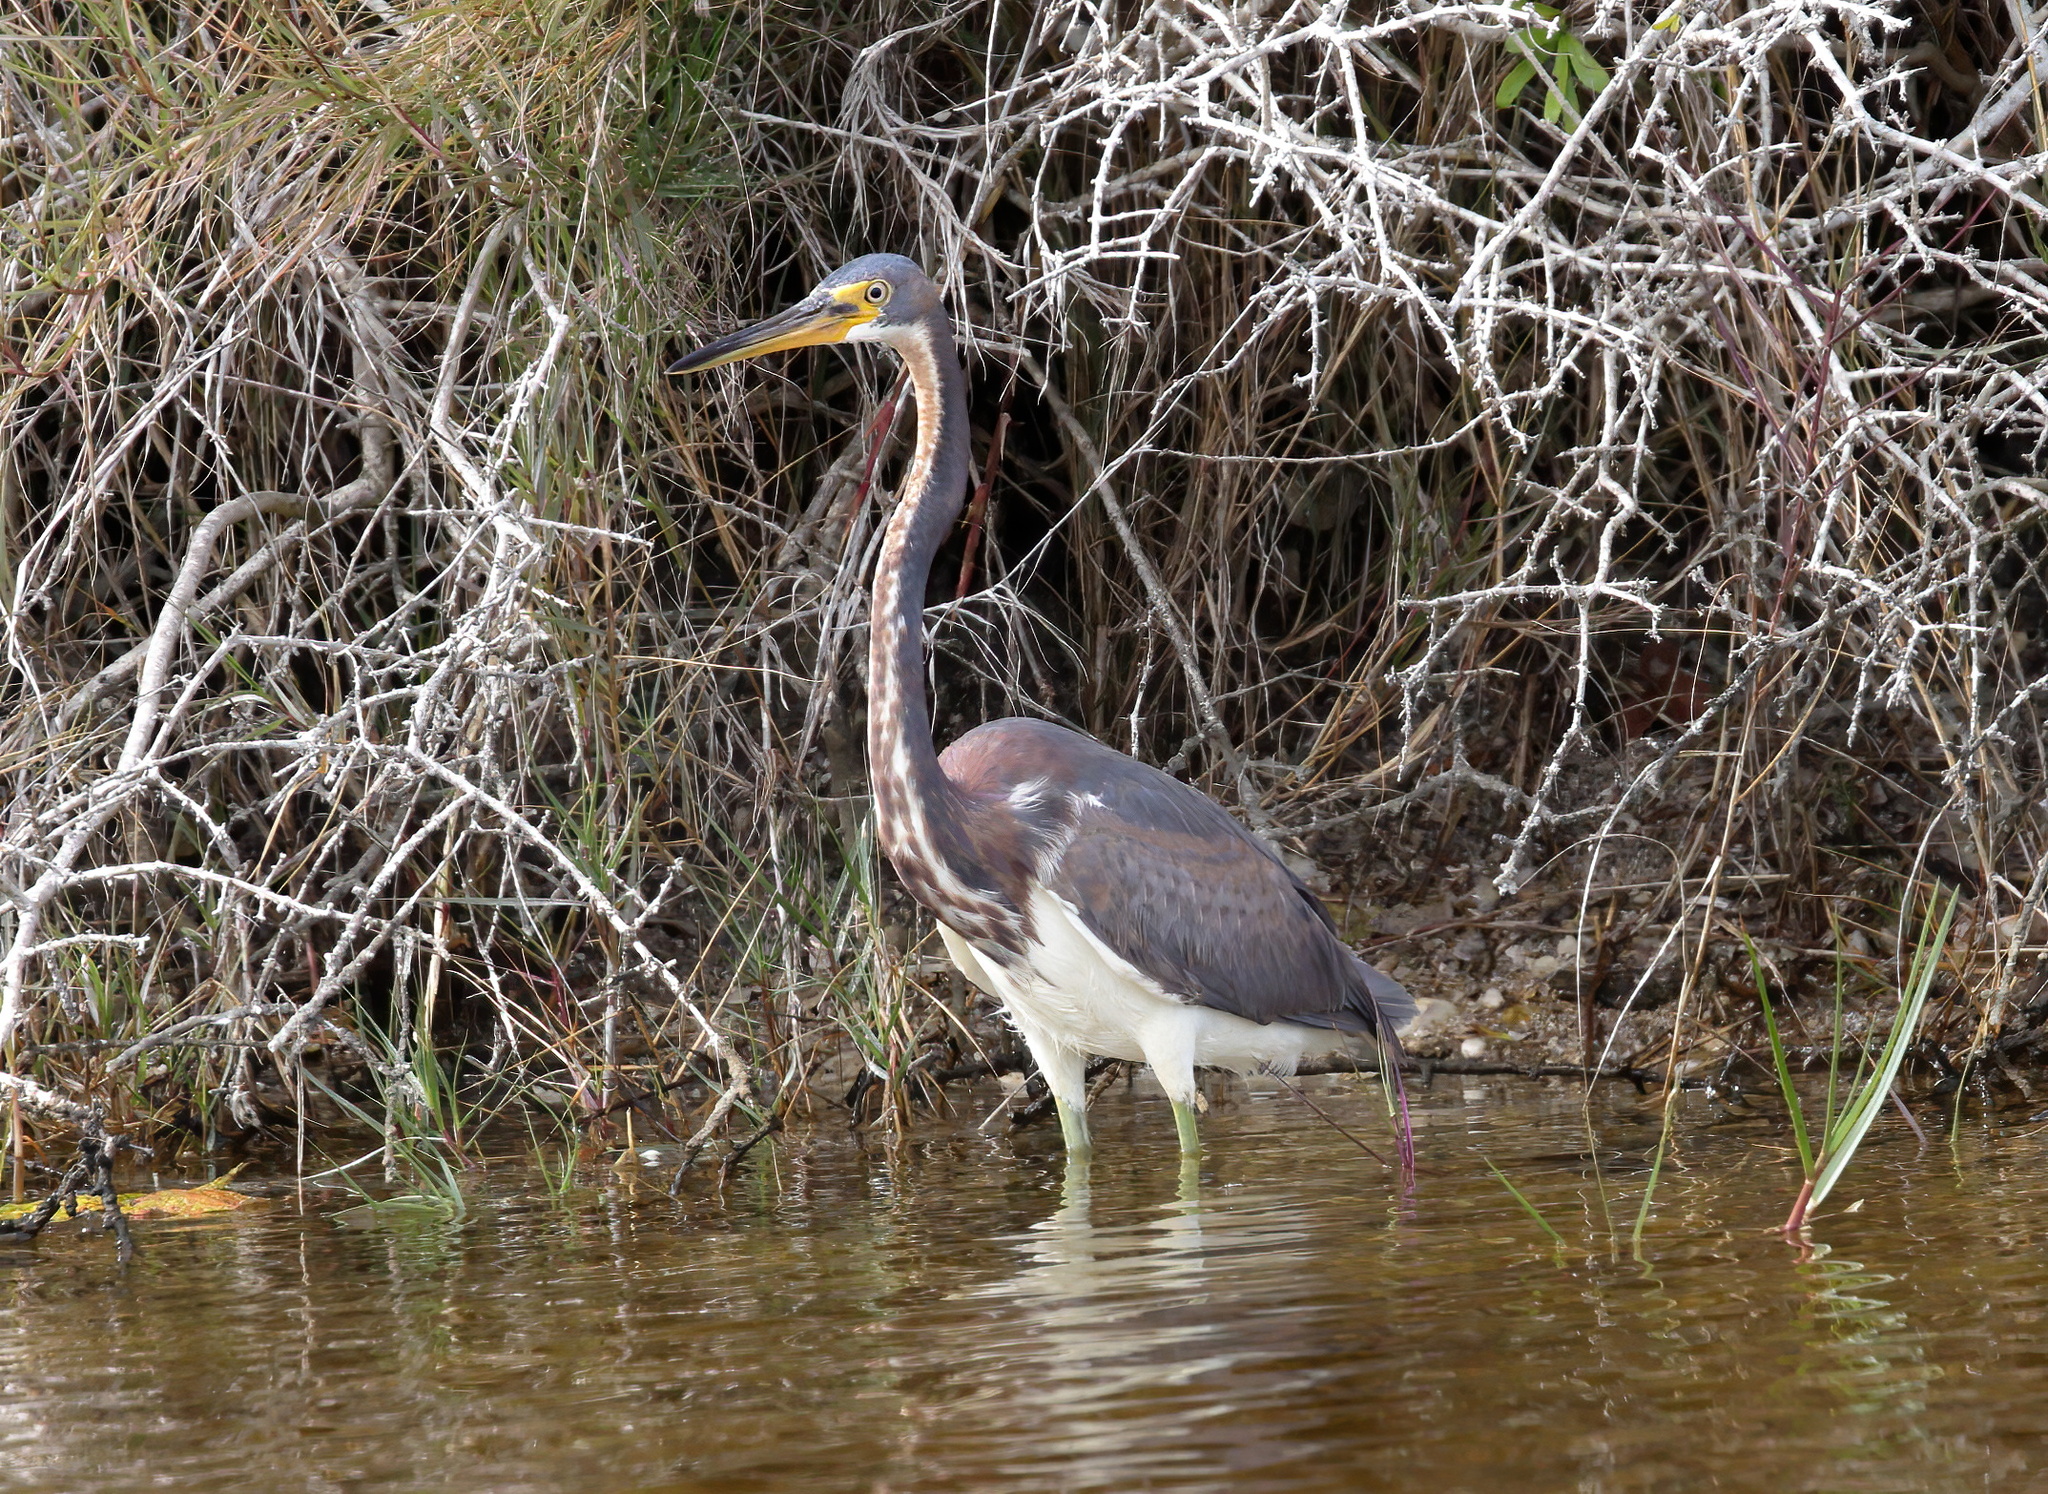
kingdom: Animalia
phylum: Chordata
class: Aves
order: Pelecaniformes
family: Ardeidae
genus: Egretta
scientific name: Egretta tricolor
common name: Tricolored heron
